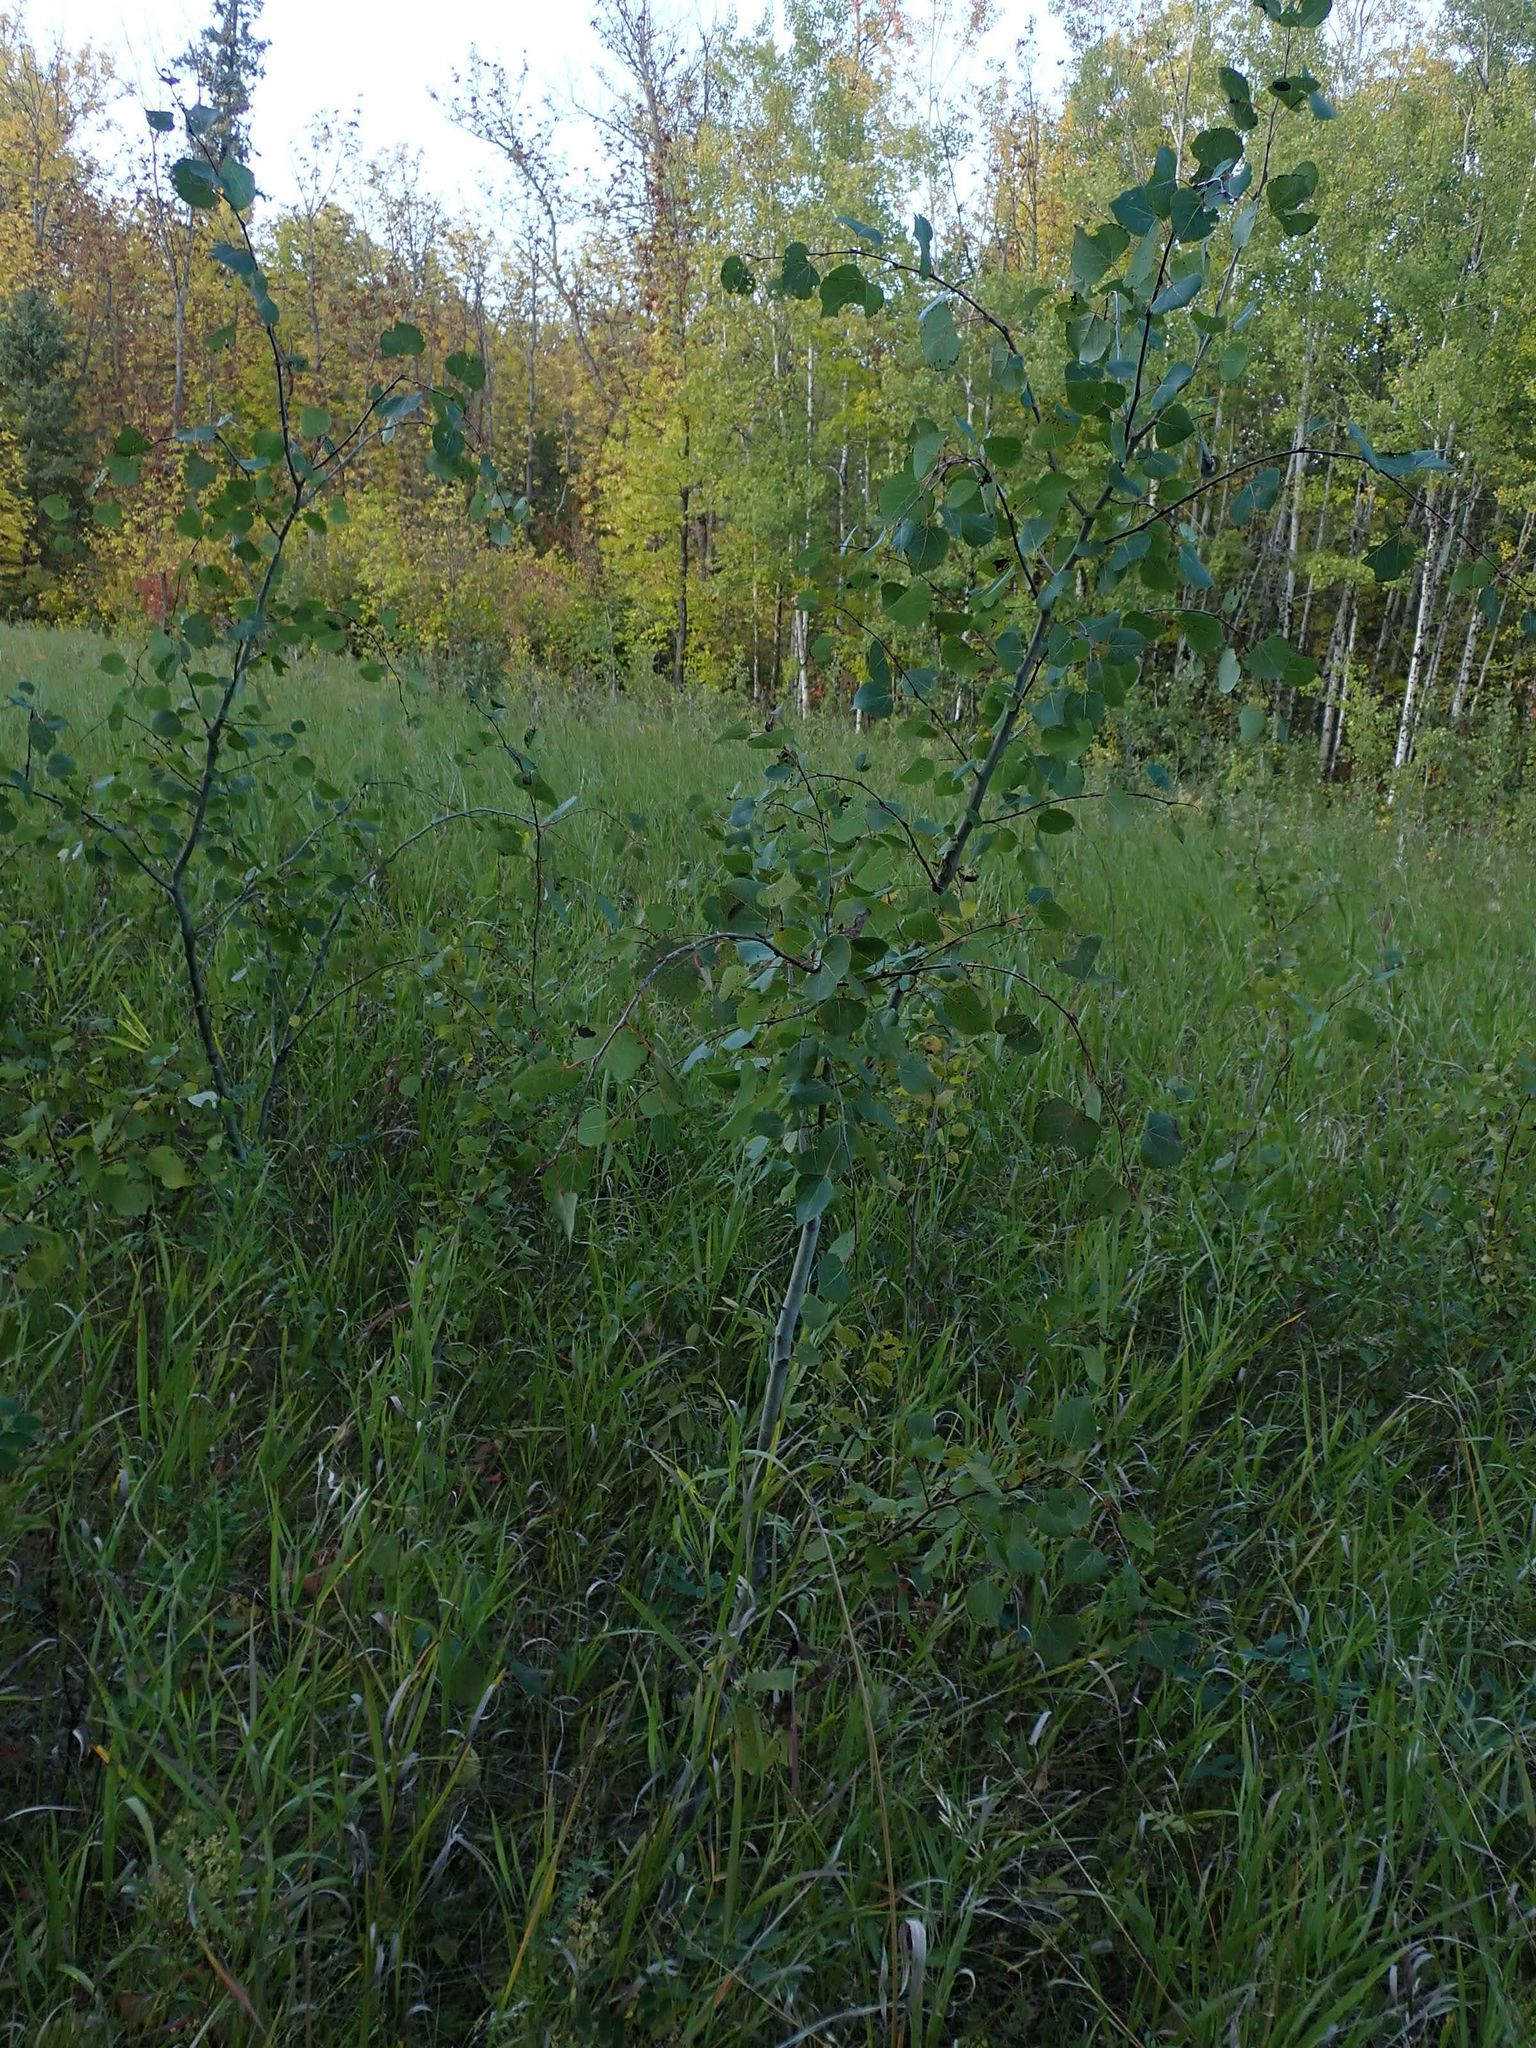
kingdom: Plantae
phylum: Tracheophyta
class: Magnoliopsida
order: Malpighiales
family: Salicaceae
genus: Populus
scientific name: Populus tremuloides
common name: Quaking aspen
